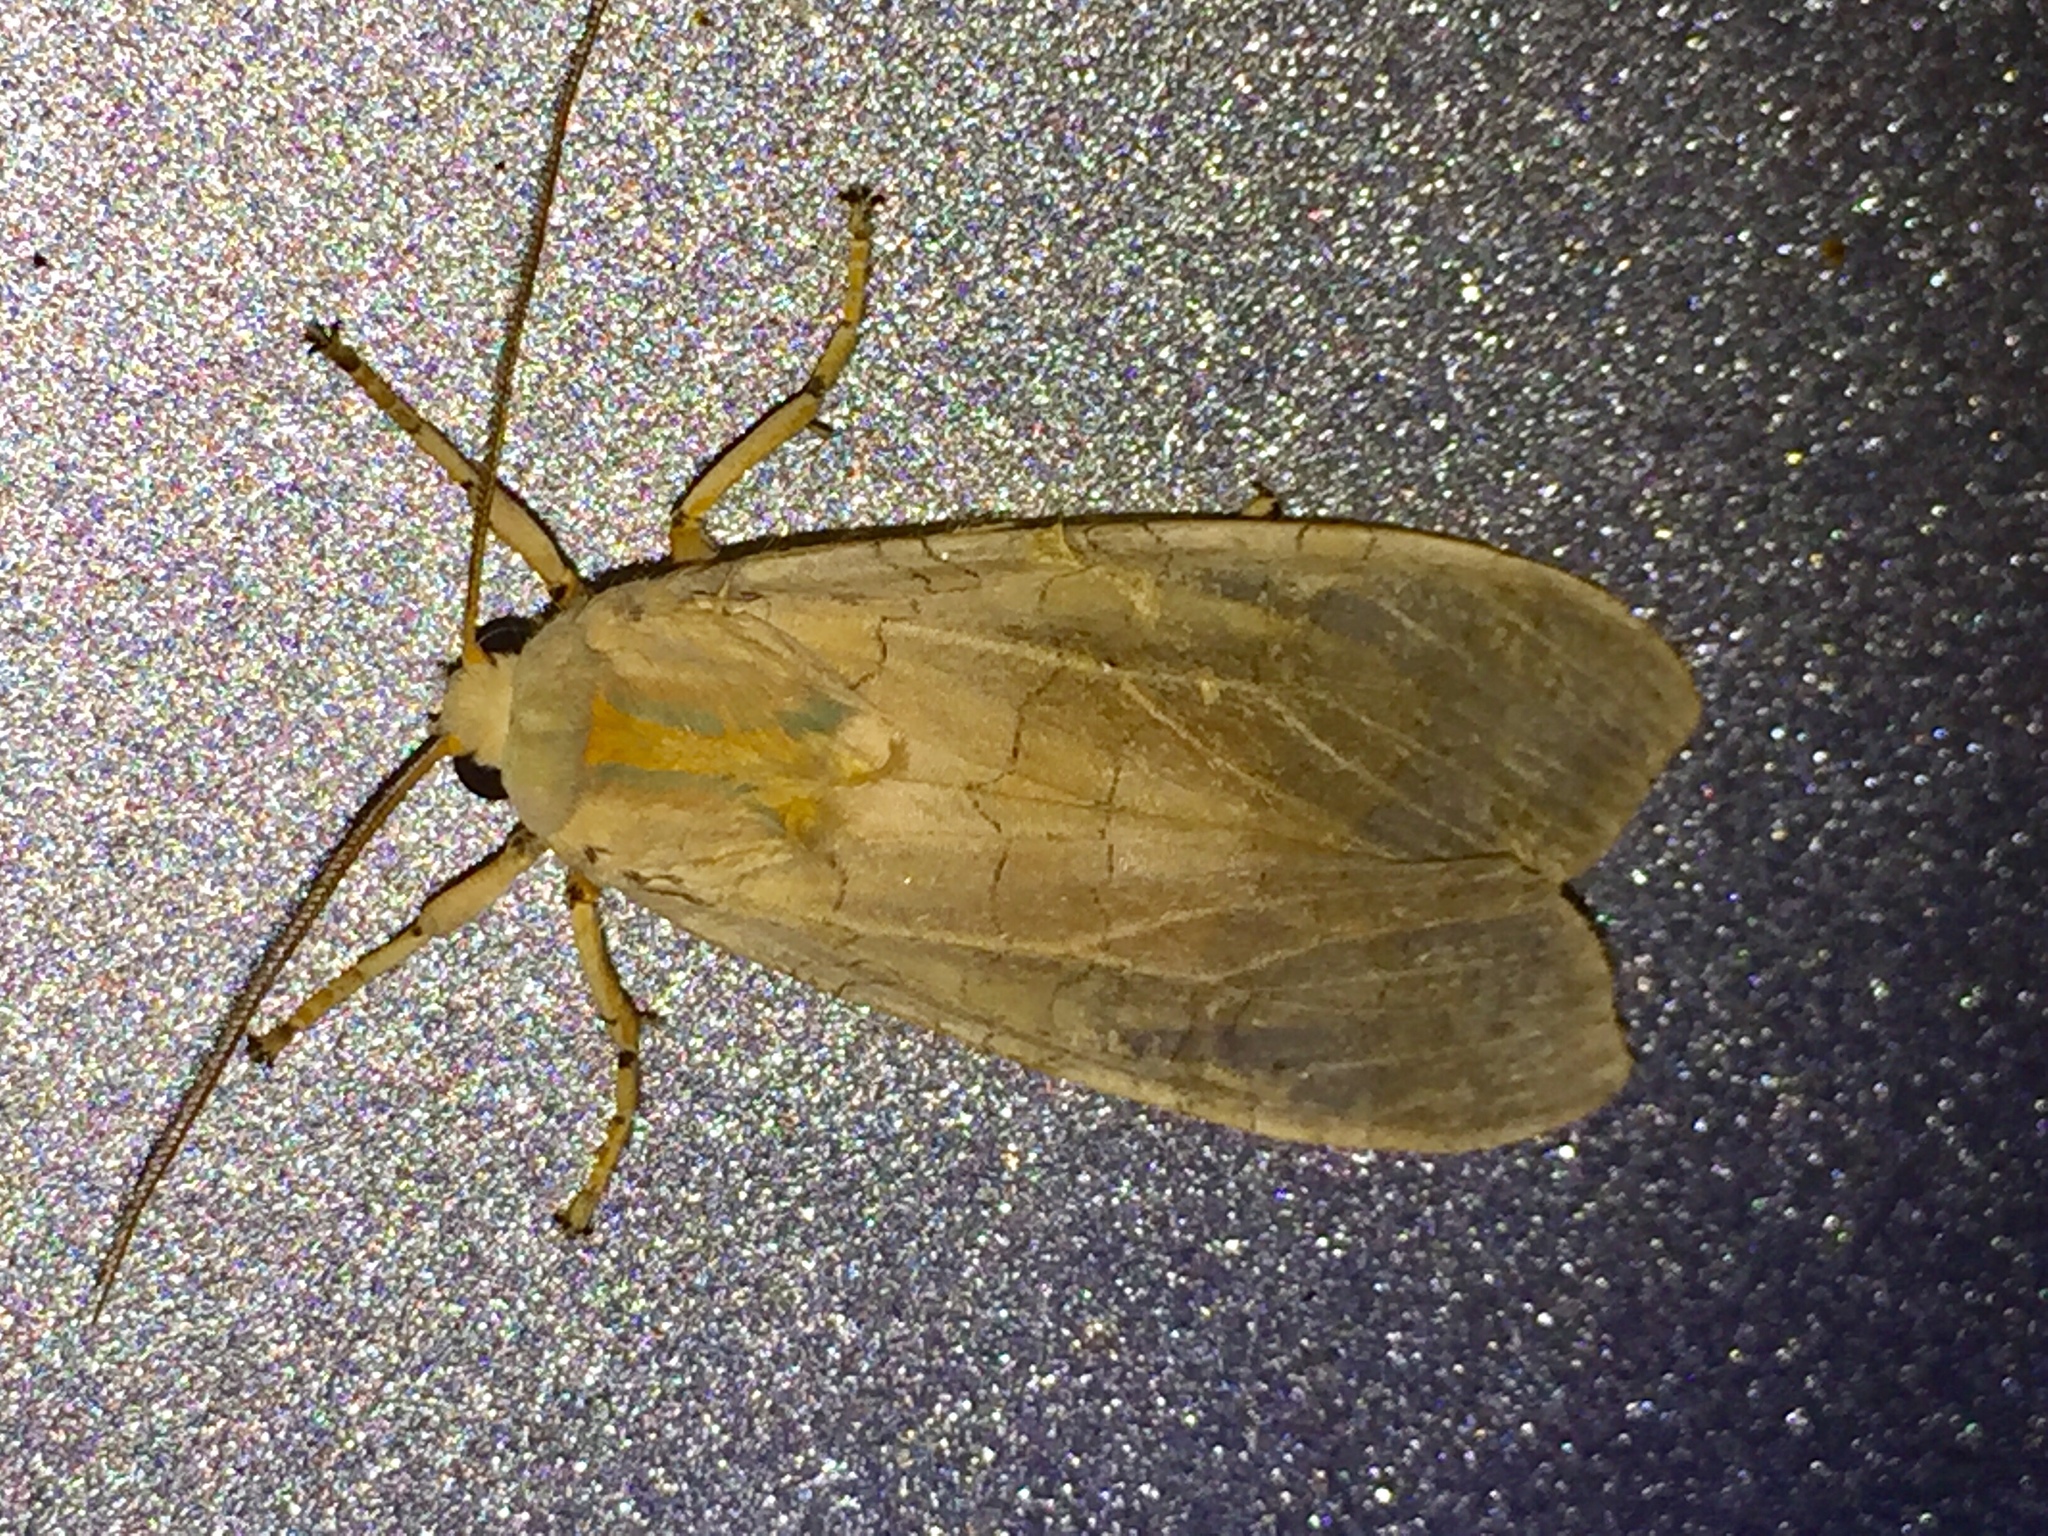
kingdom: Animalia
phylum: Arthropoda
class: Insecta
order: Lepidoptera
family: Erebidae
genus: Halysidota
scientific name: Halysidota
